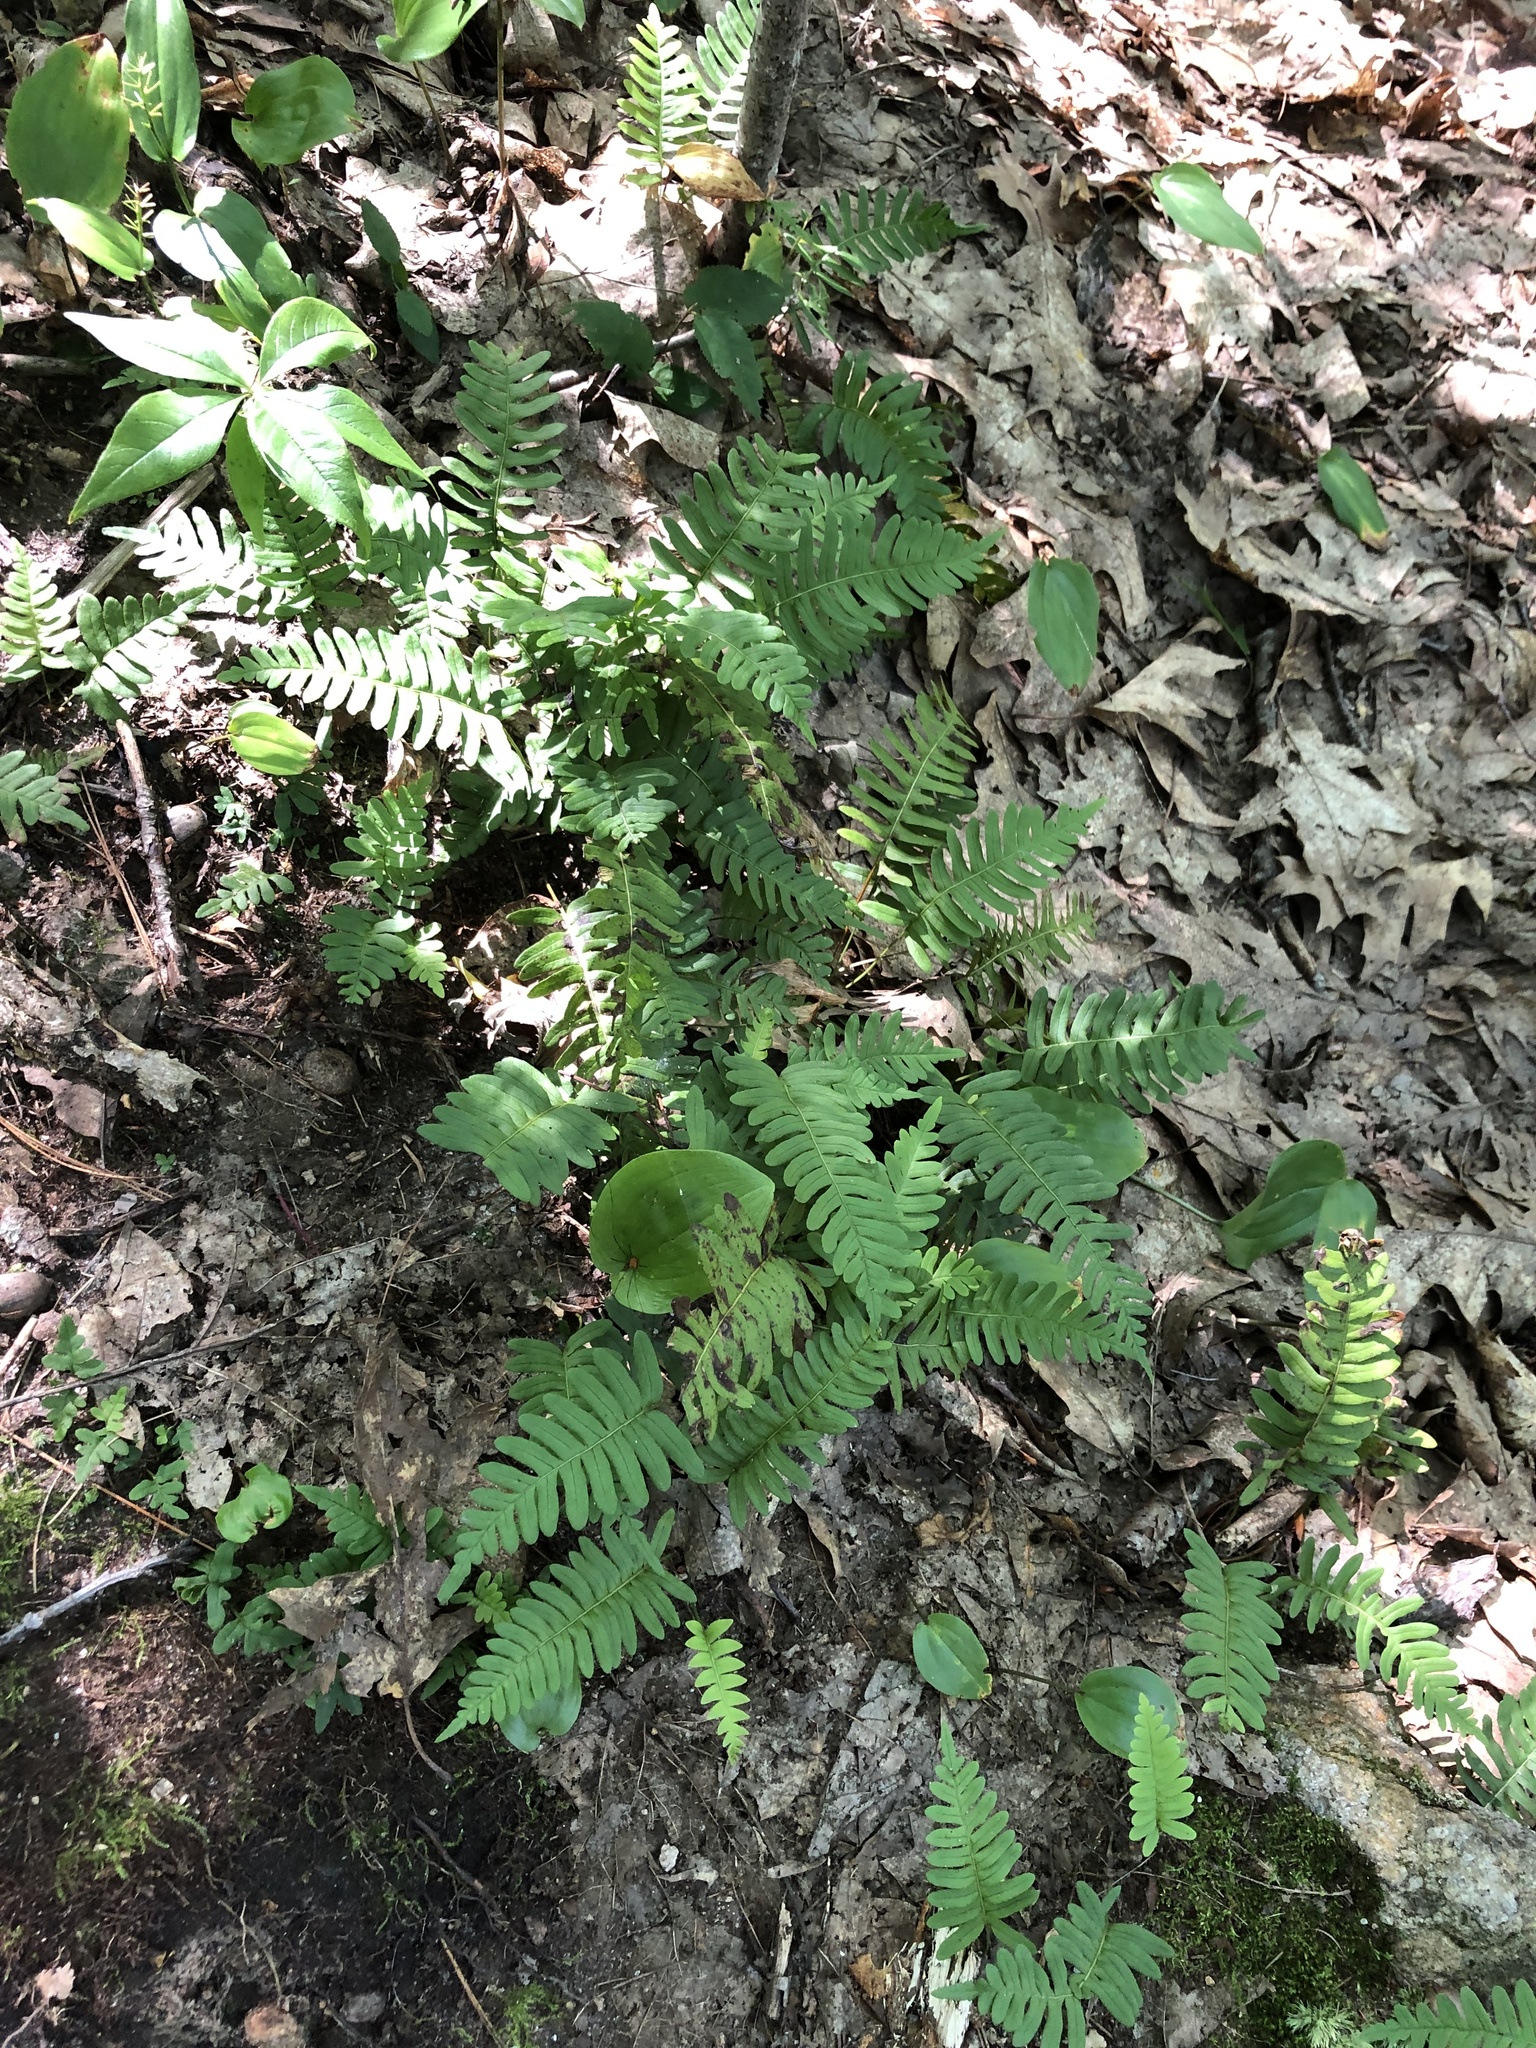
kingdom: Plantae
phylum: Tracheophyta
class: Polypodiopsida
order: Polypodiales
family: Polypodiaceae
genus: Polypodium
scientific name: Polypodium virginianum
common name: American wall fern
